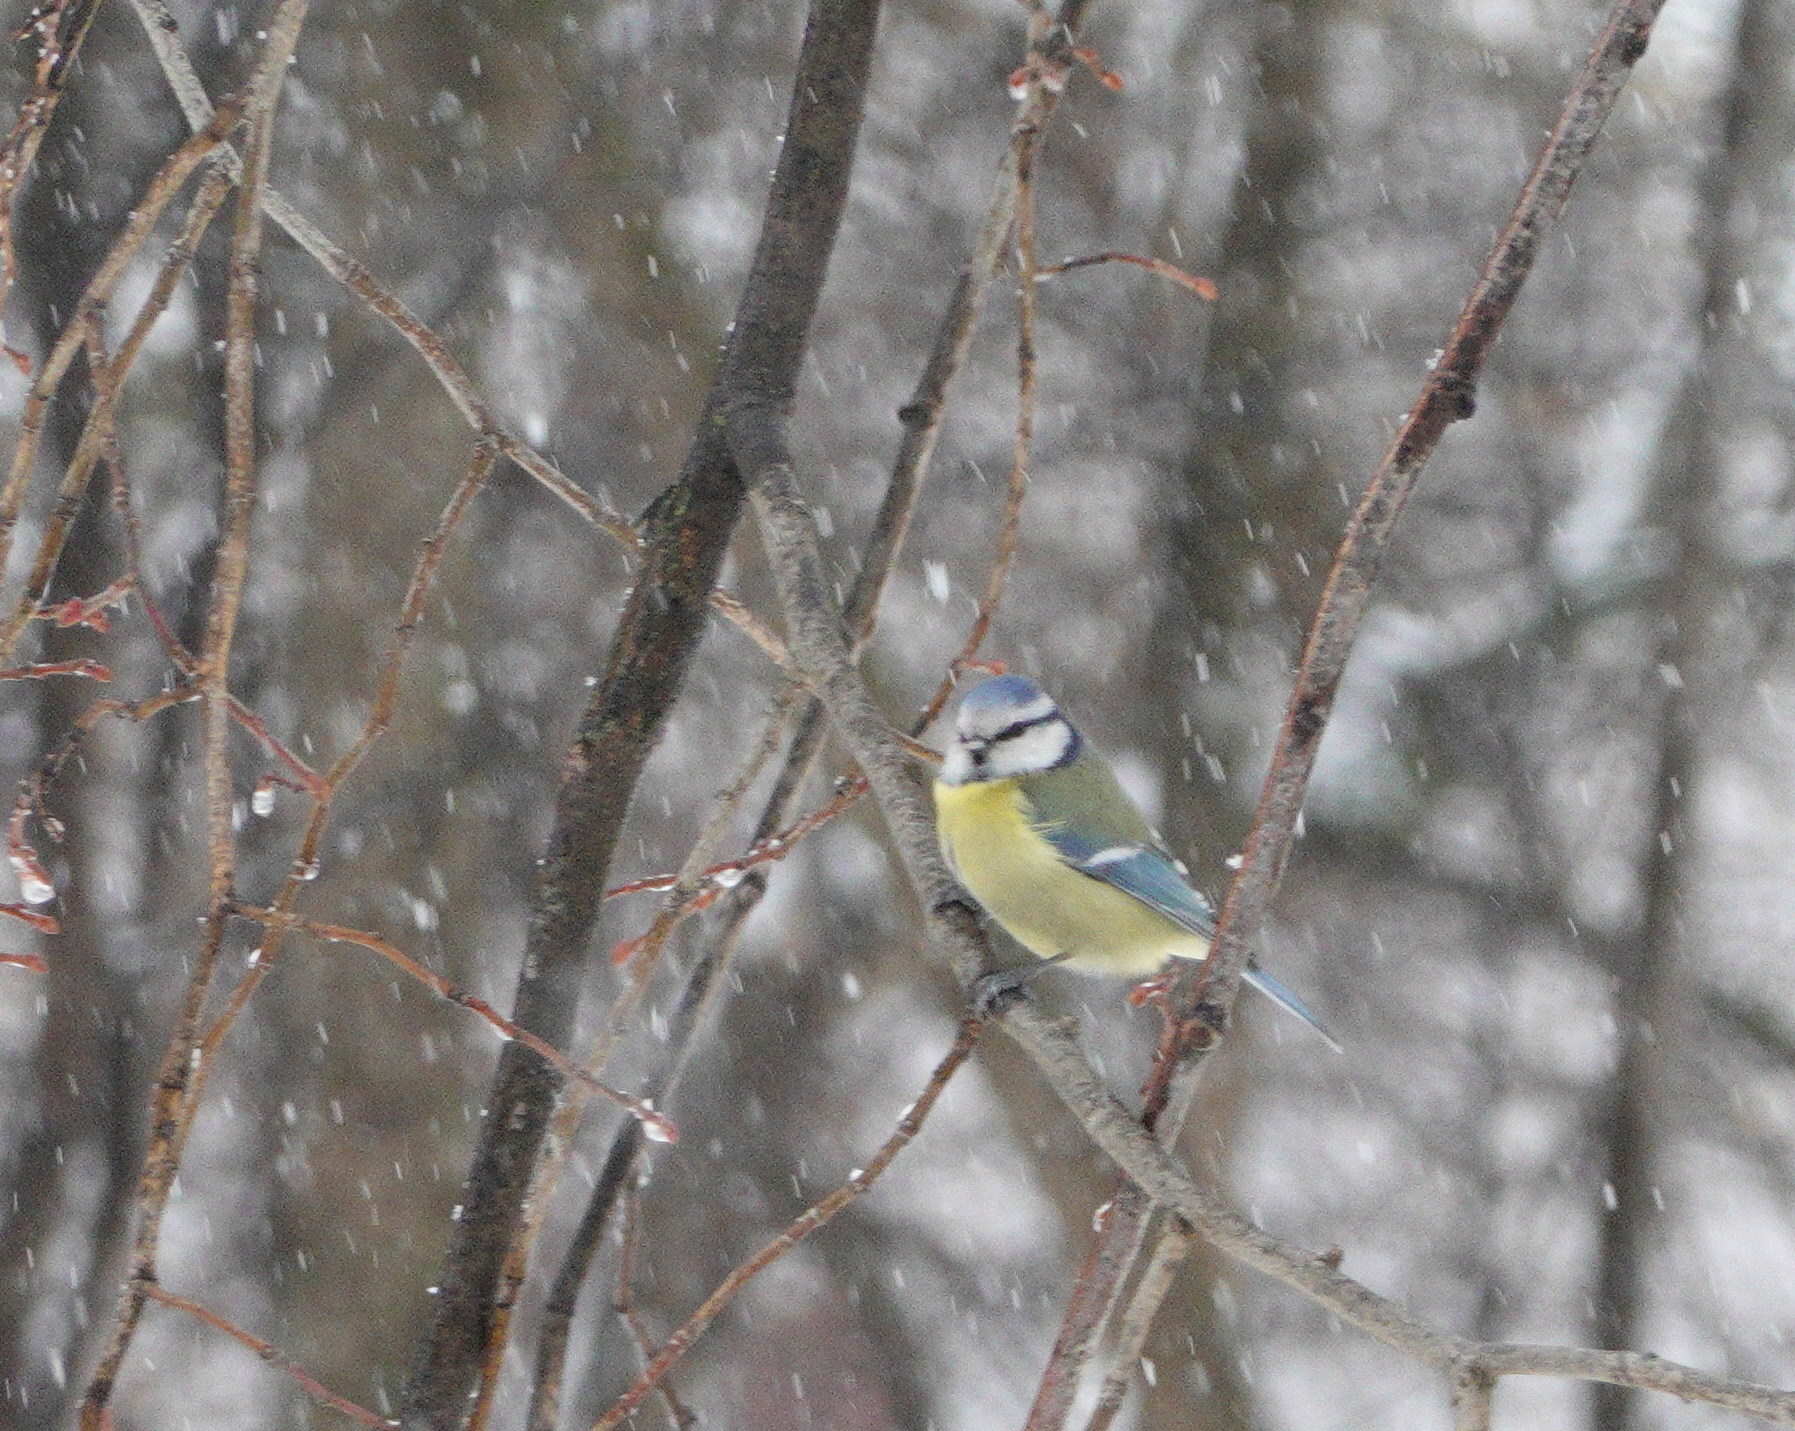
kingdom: Animalia
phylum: Chordata
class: Aves
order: Passeriformes
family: Paridae
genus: Cyanistes
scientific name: Cyanistes caeruleus
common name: Eurasian blue tit
